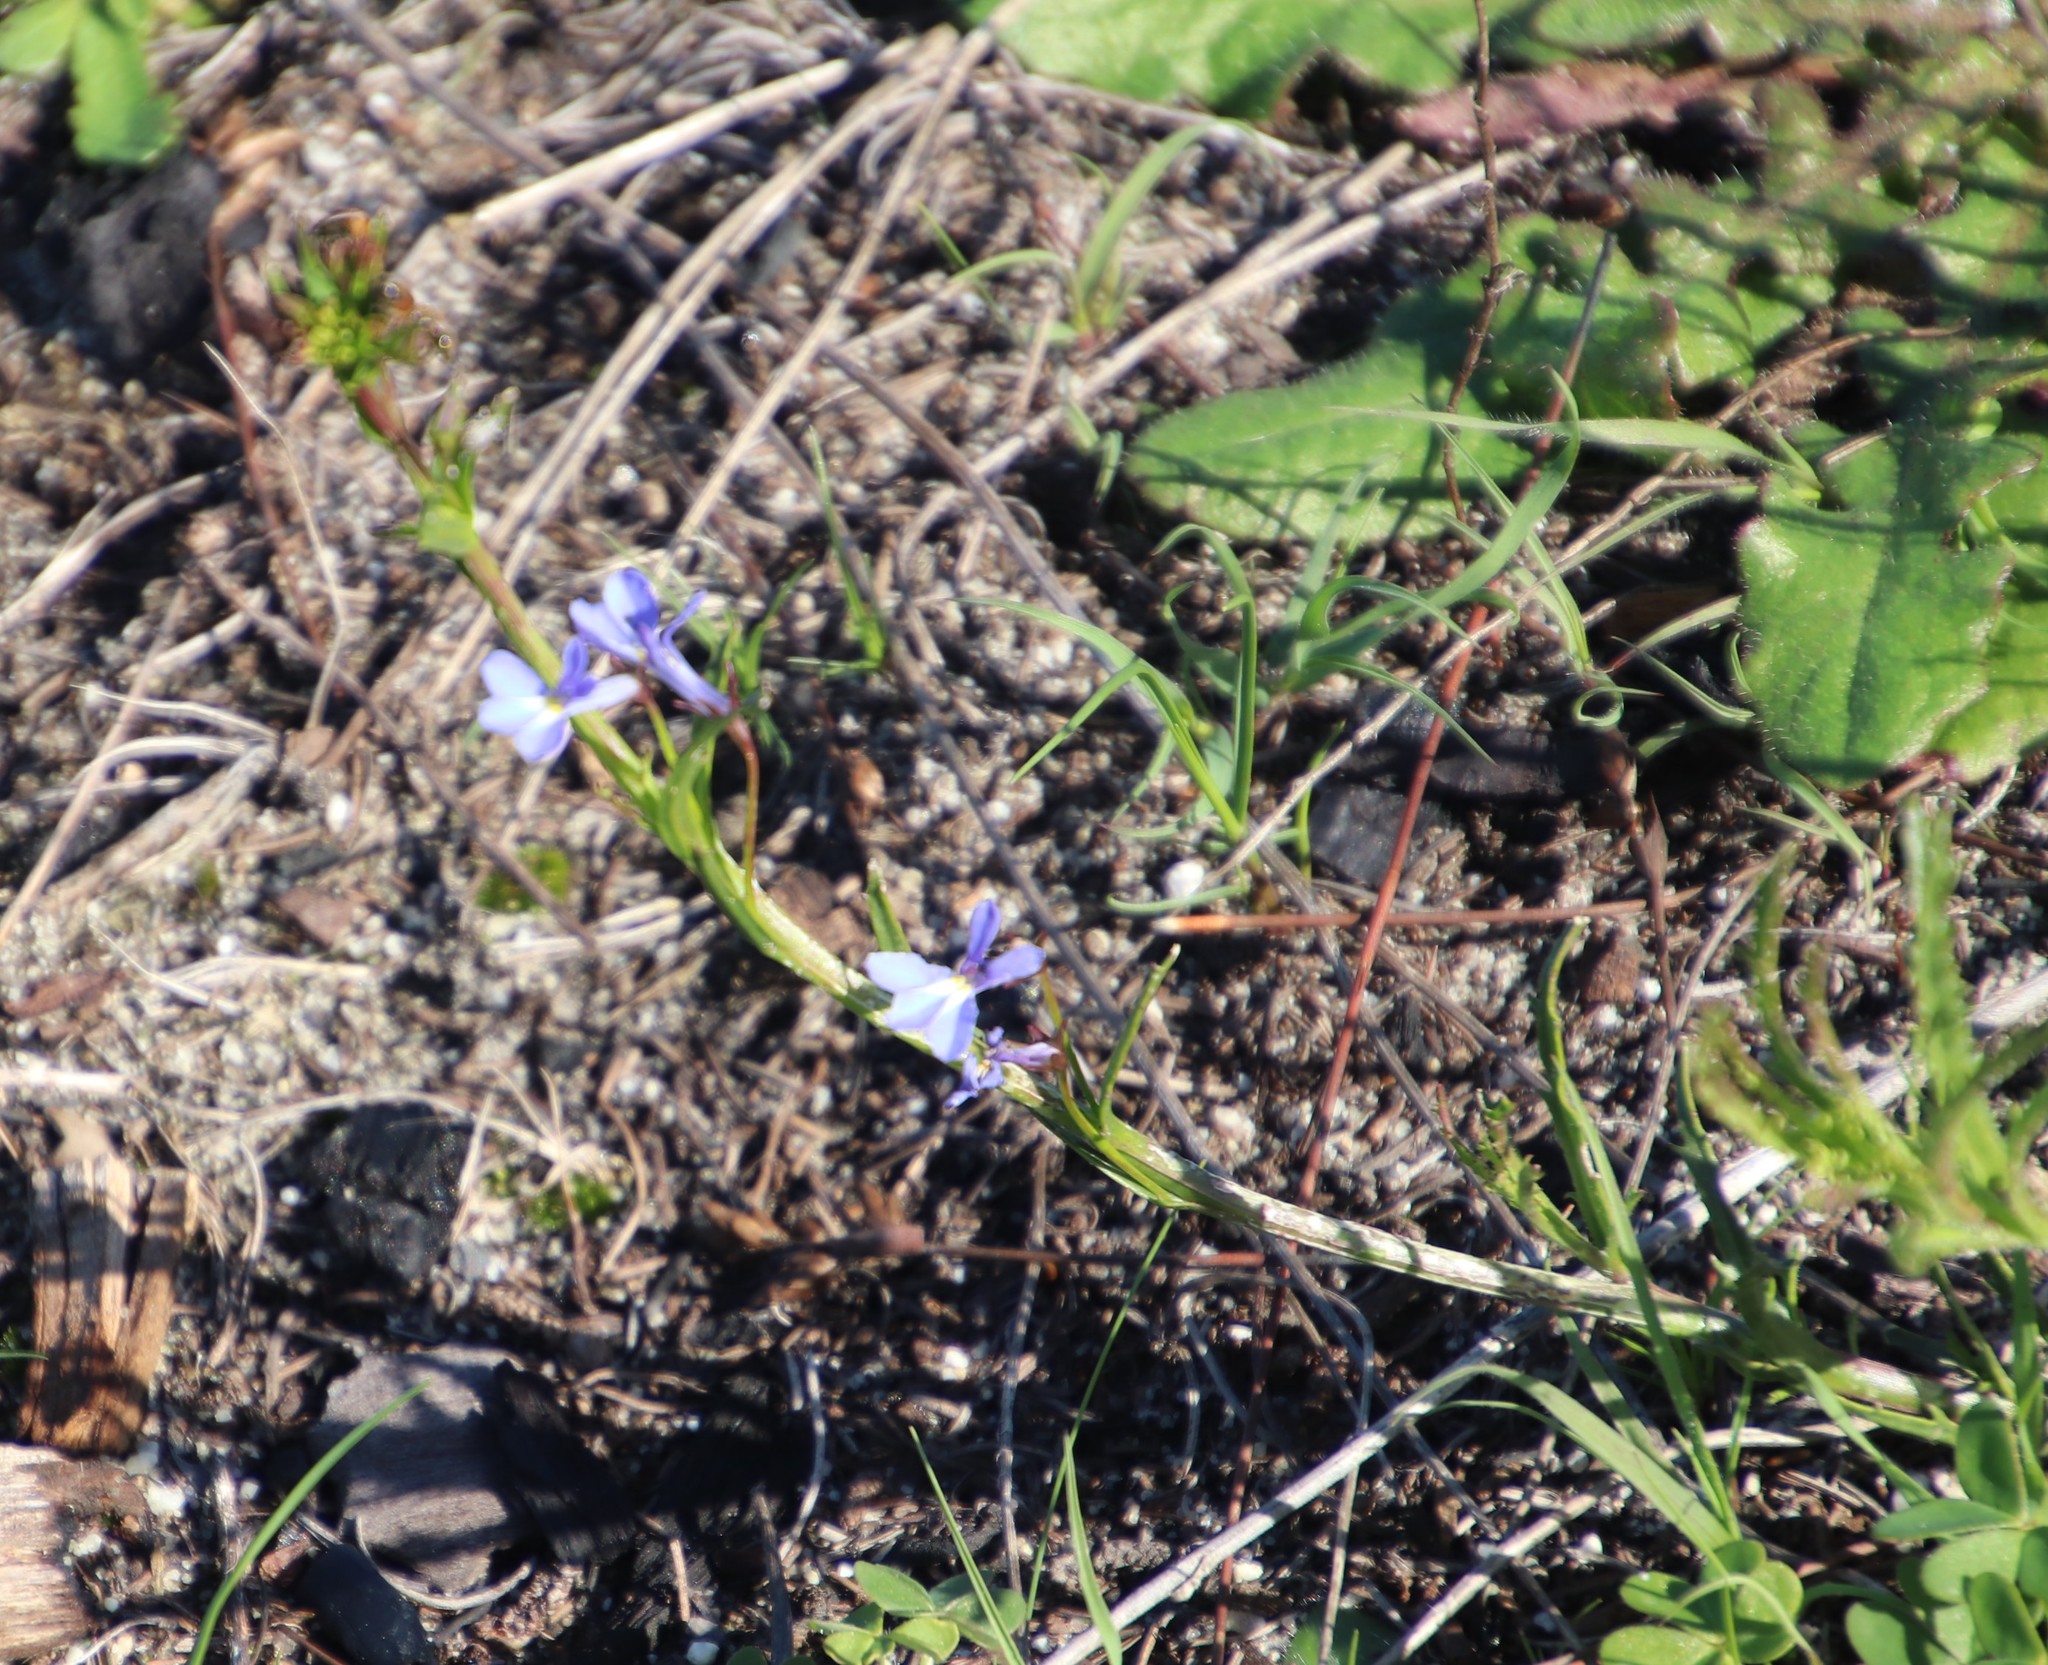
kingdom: Plantae
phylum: Tracheophyta
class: Magnoliopsida
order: Asterales
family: Campanulaceae
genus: Lobelia
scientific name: Lobelia comosa
